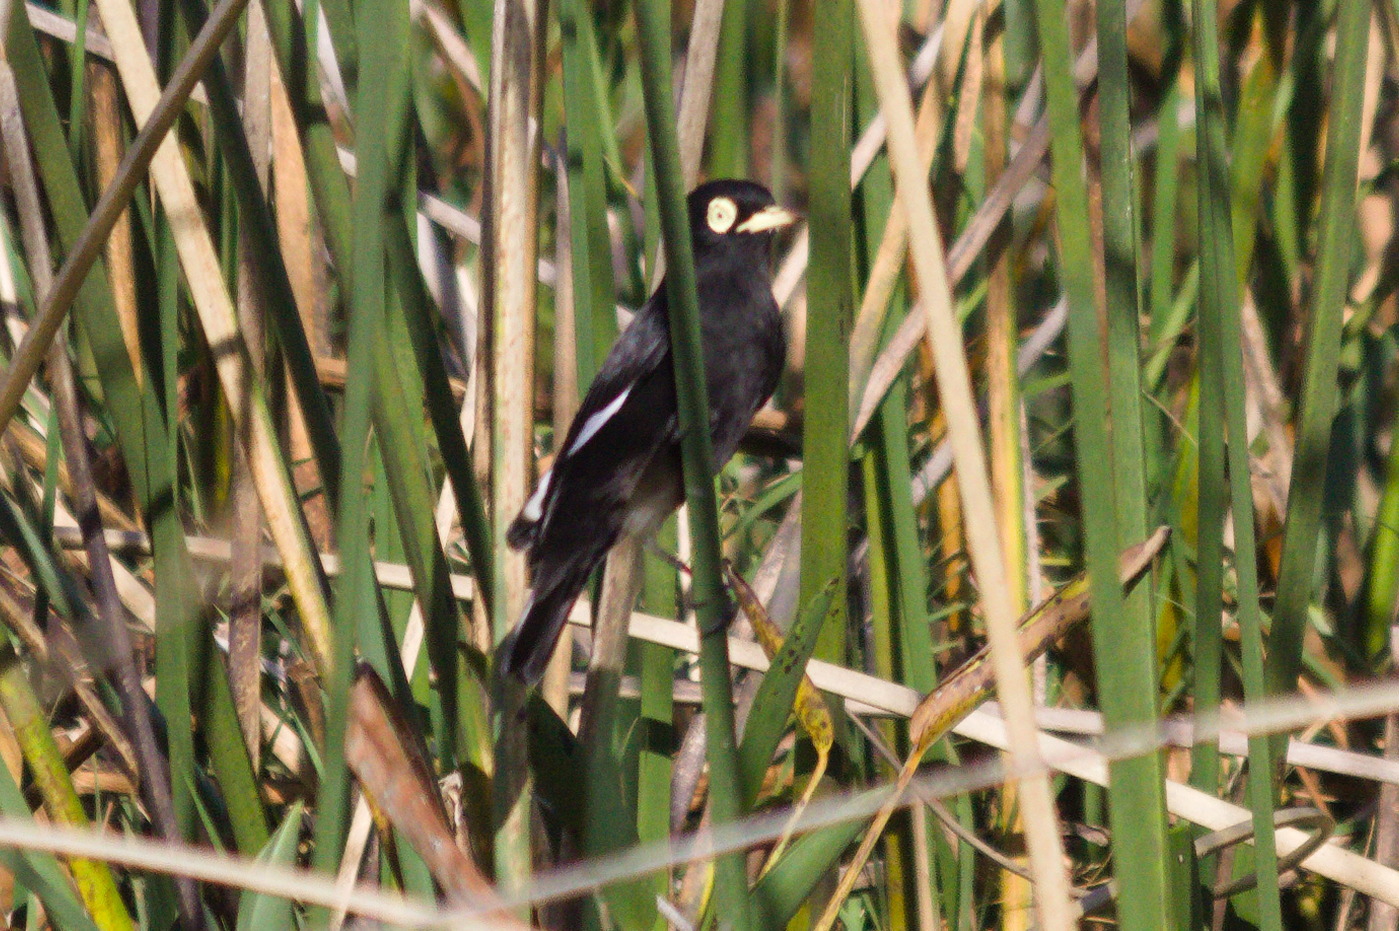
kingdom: Animalia
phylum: Chordata
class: Aves
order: Passeriformes
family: Tyrannidae
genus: Hymenops
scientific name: Hymenops perspicillatus
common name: Spectacled tyrant
